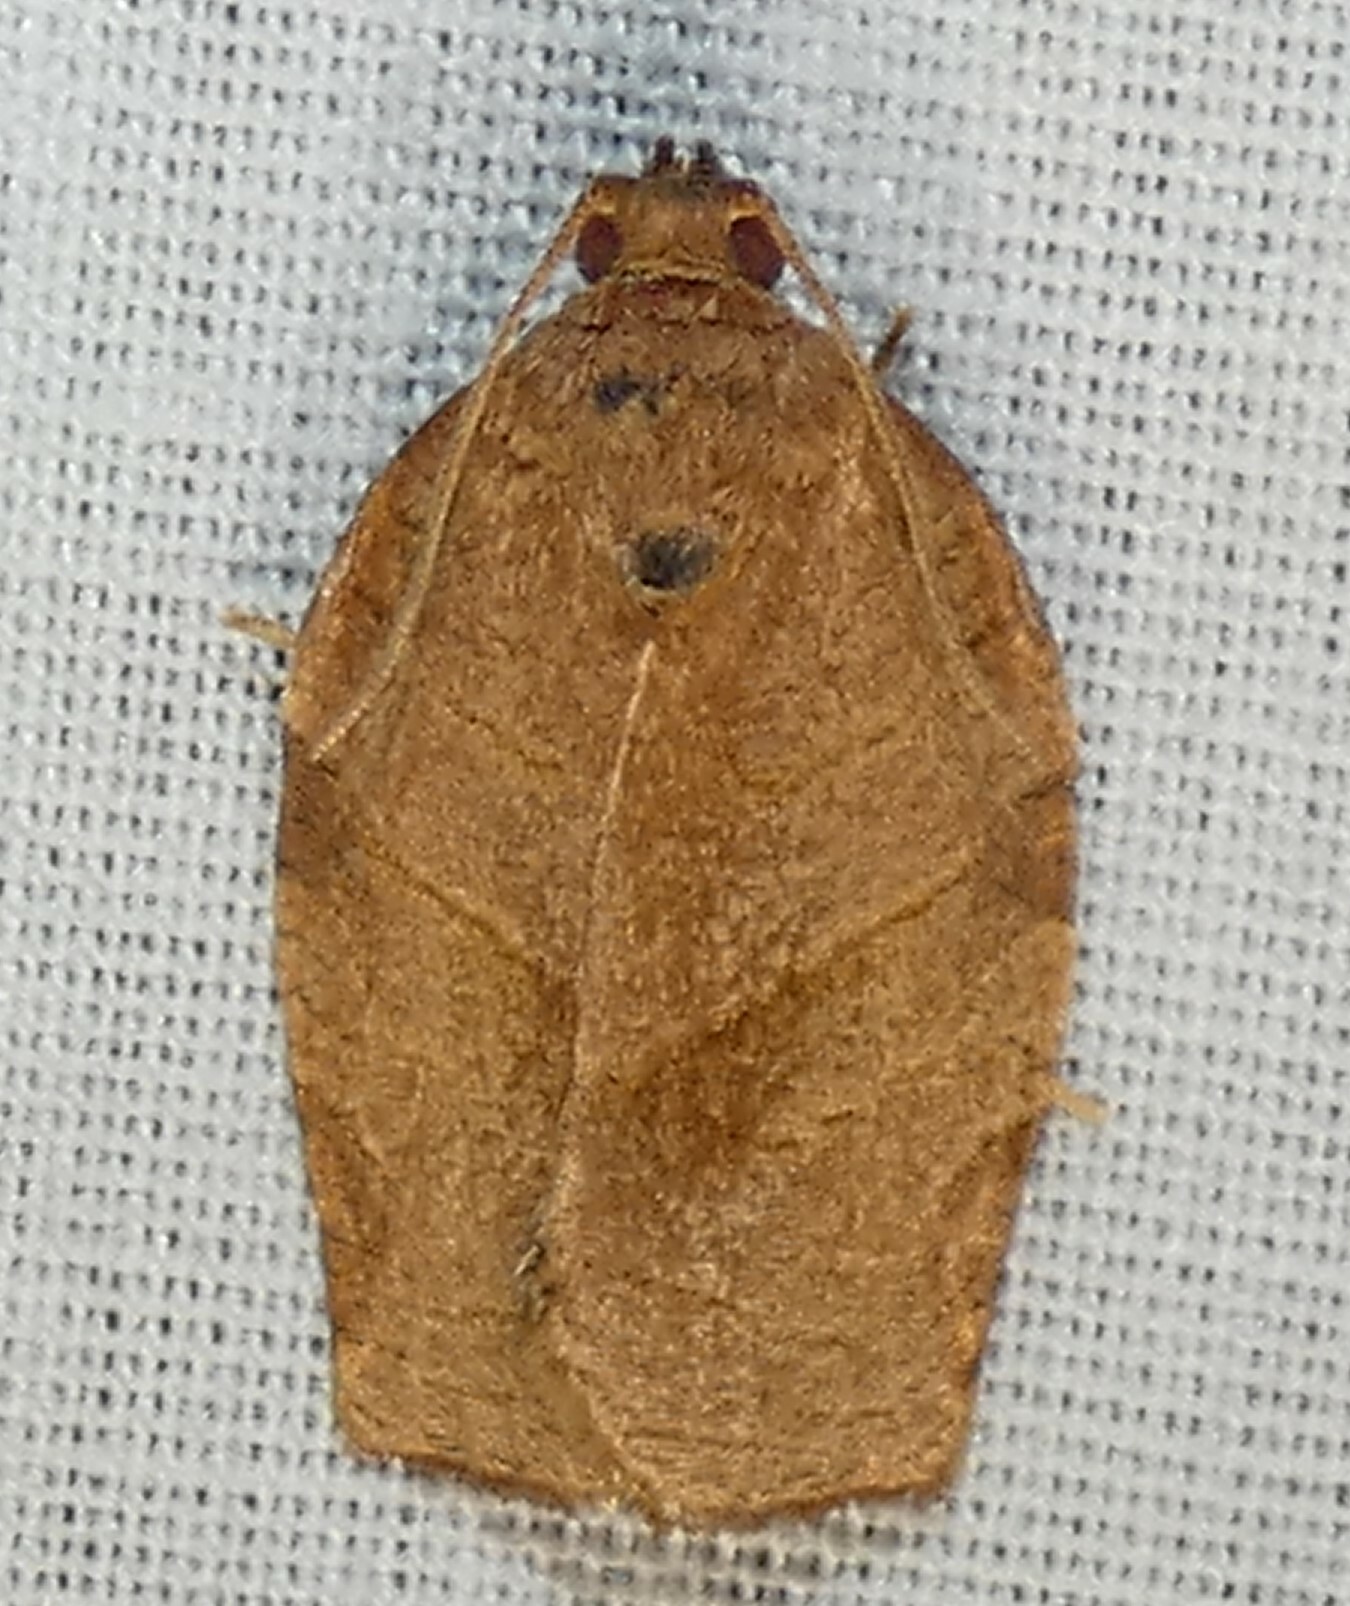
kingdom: Animalia
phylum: Arthropoda
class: Insecta
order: Lepidoptera
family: Tortricidae
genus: Choristoneura
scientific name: Choristoneura rosaceana
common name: Oblique-banded leafroller moth
